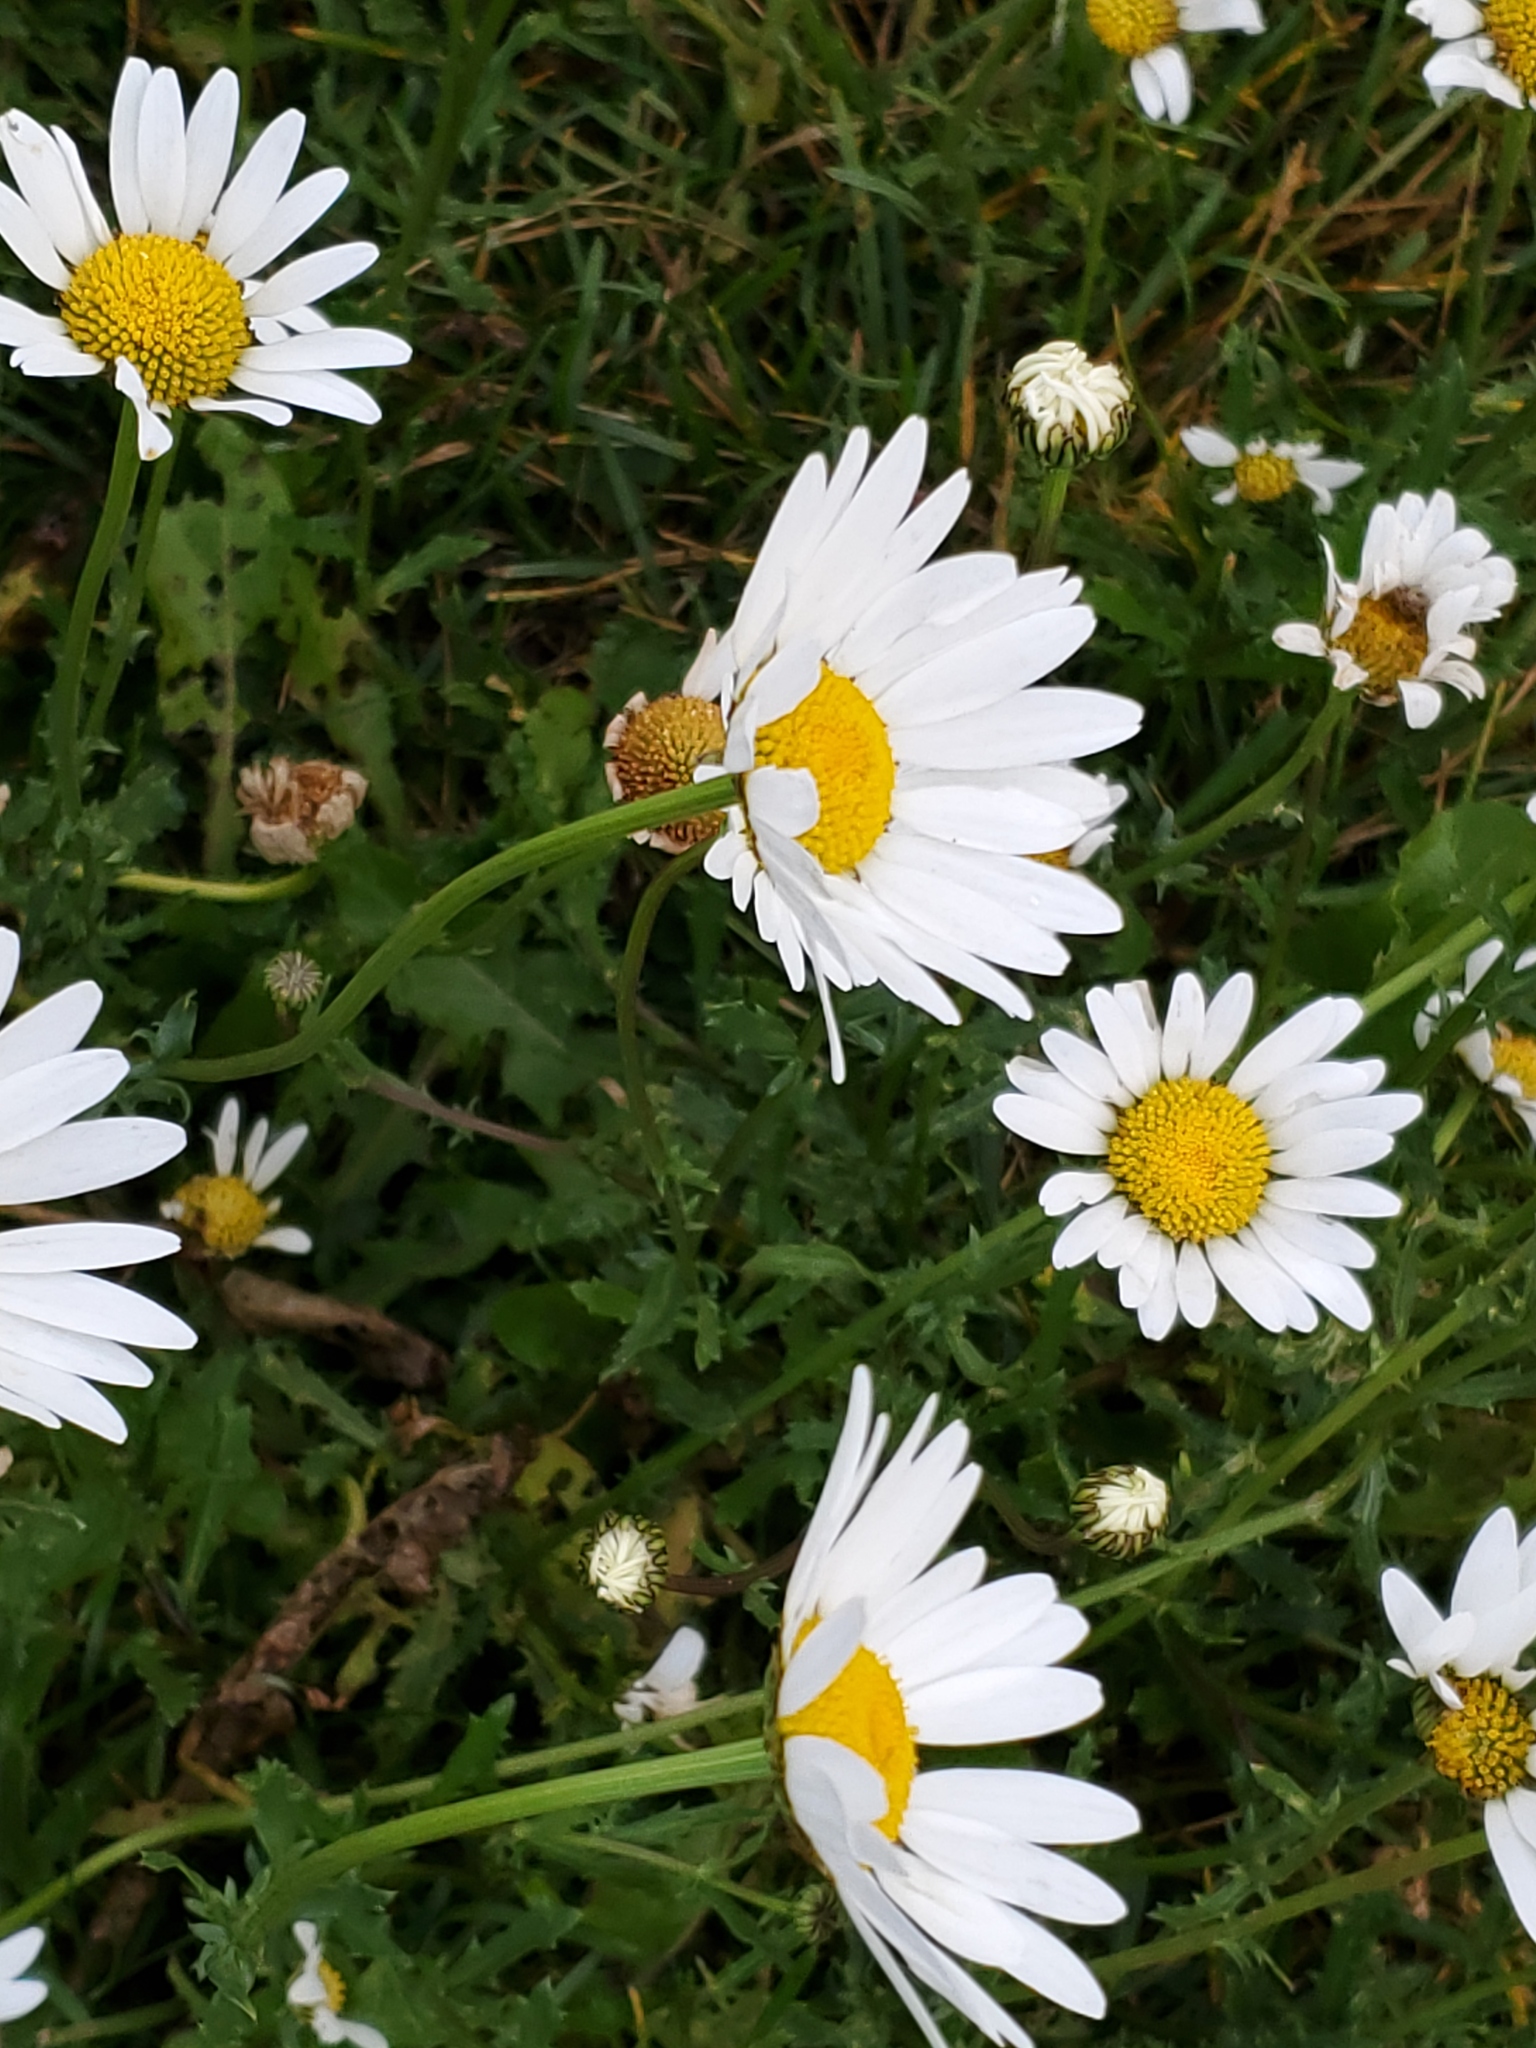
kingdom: Plantae
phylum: Tracheophyta
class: Magnoliopsida
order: Asterales
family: Asteraceae
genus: Leucanthemum
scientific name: Leucanthemum vulgare
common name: Oxeye daisy
